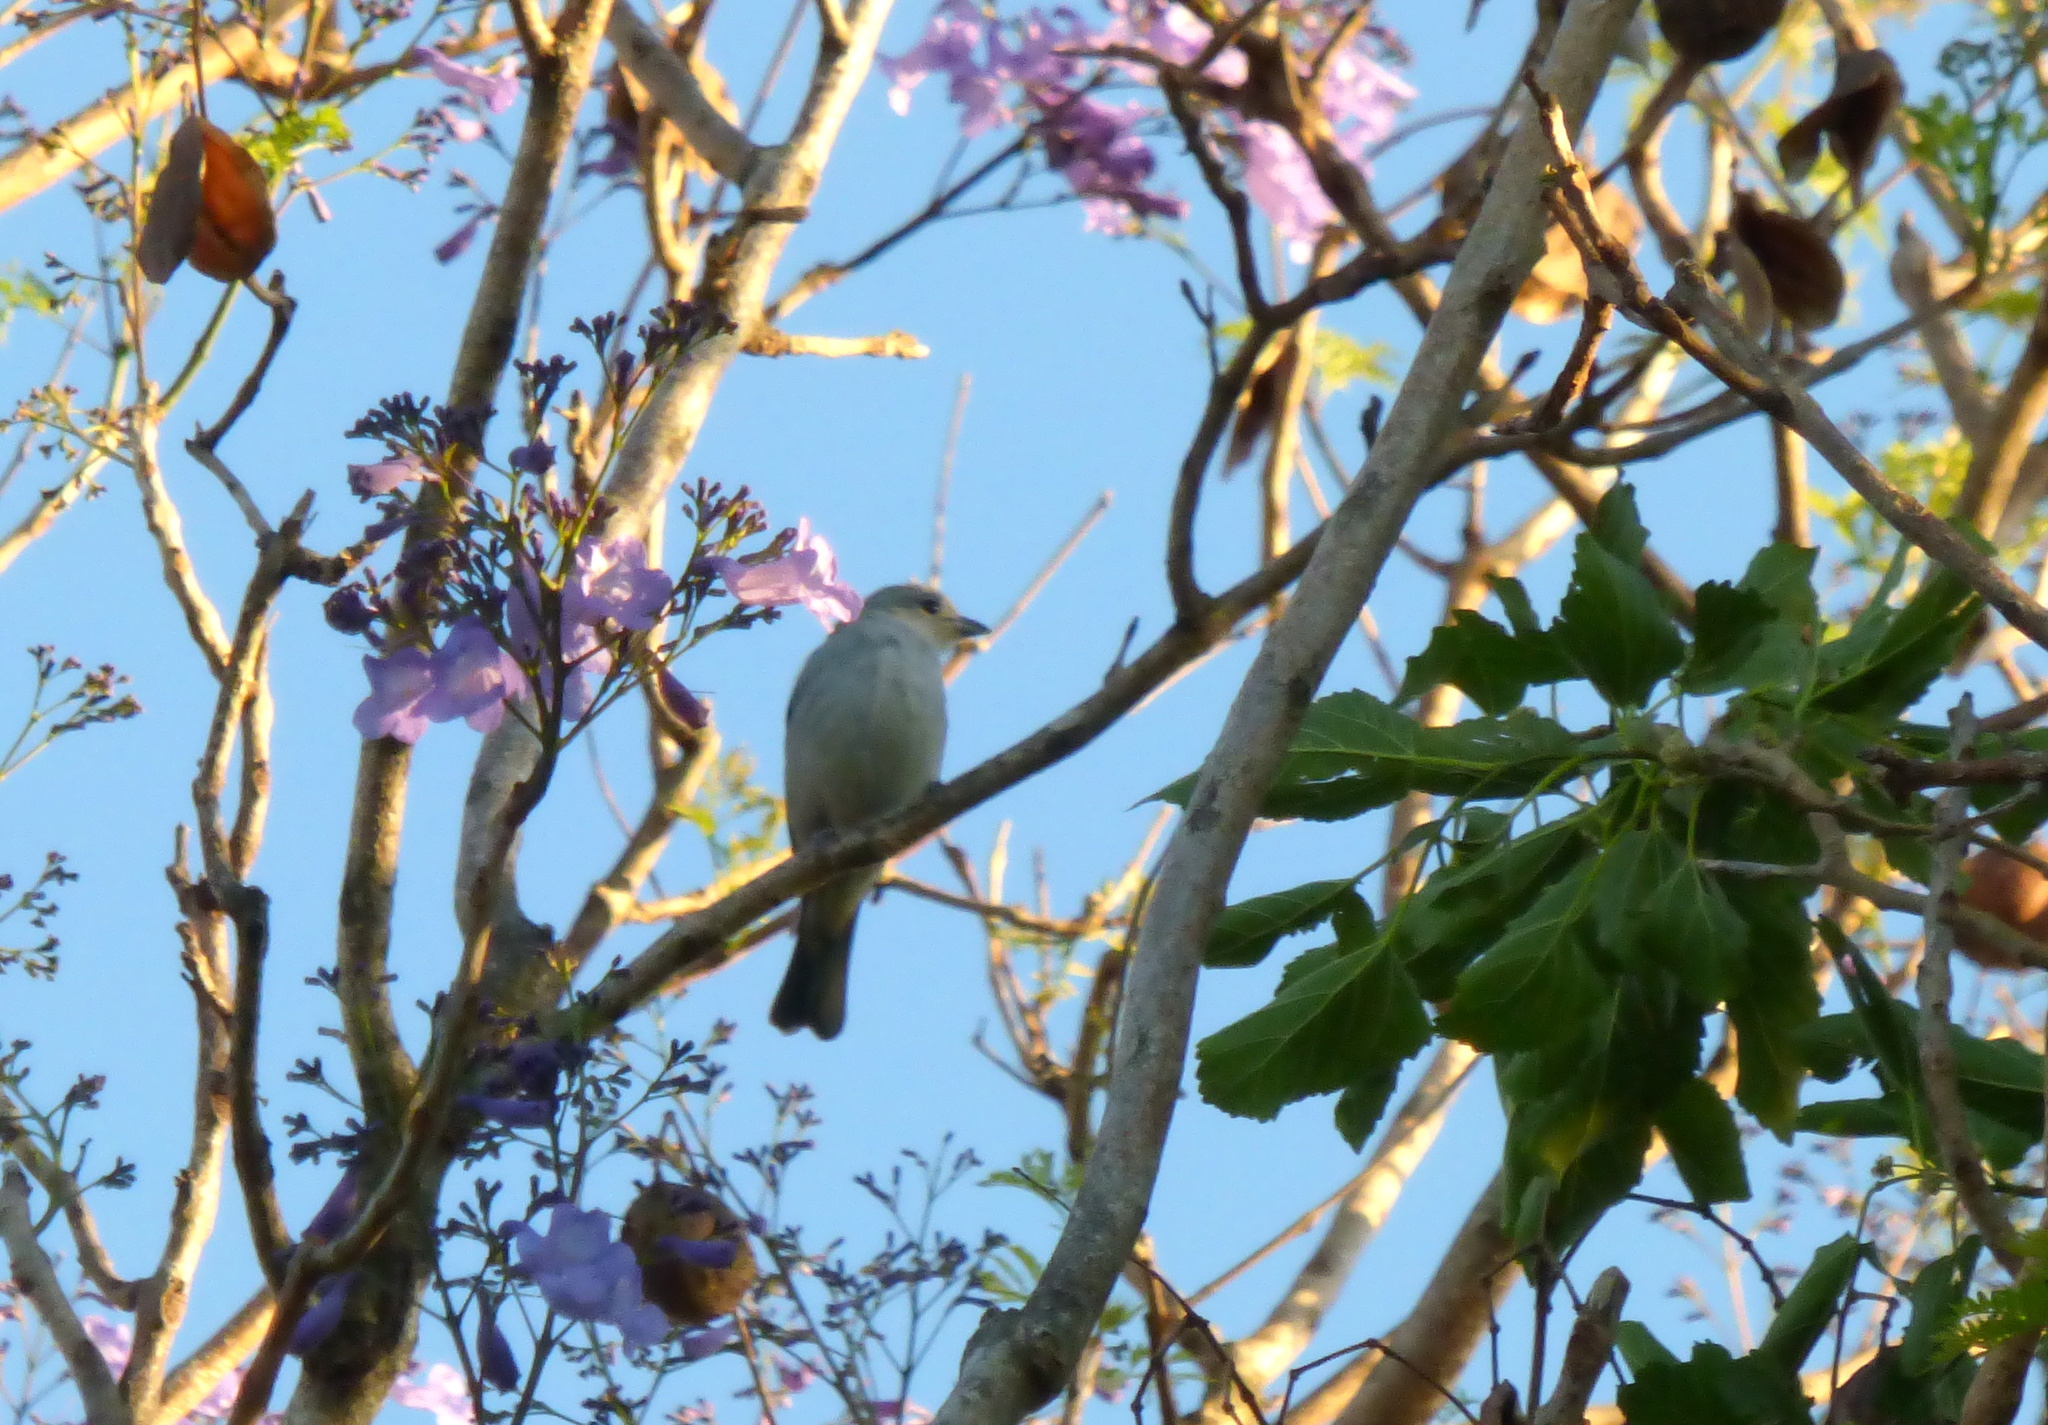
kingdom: Animalia
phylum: Chordata
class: Aves
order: Passeriformes
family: Thraupidae
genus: Thraupis
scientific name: Thraupis sayaca
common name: Sayaca tanager
